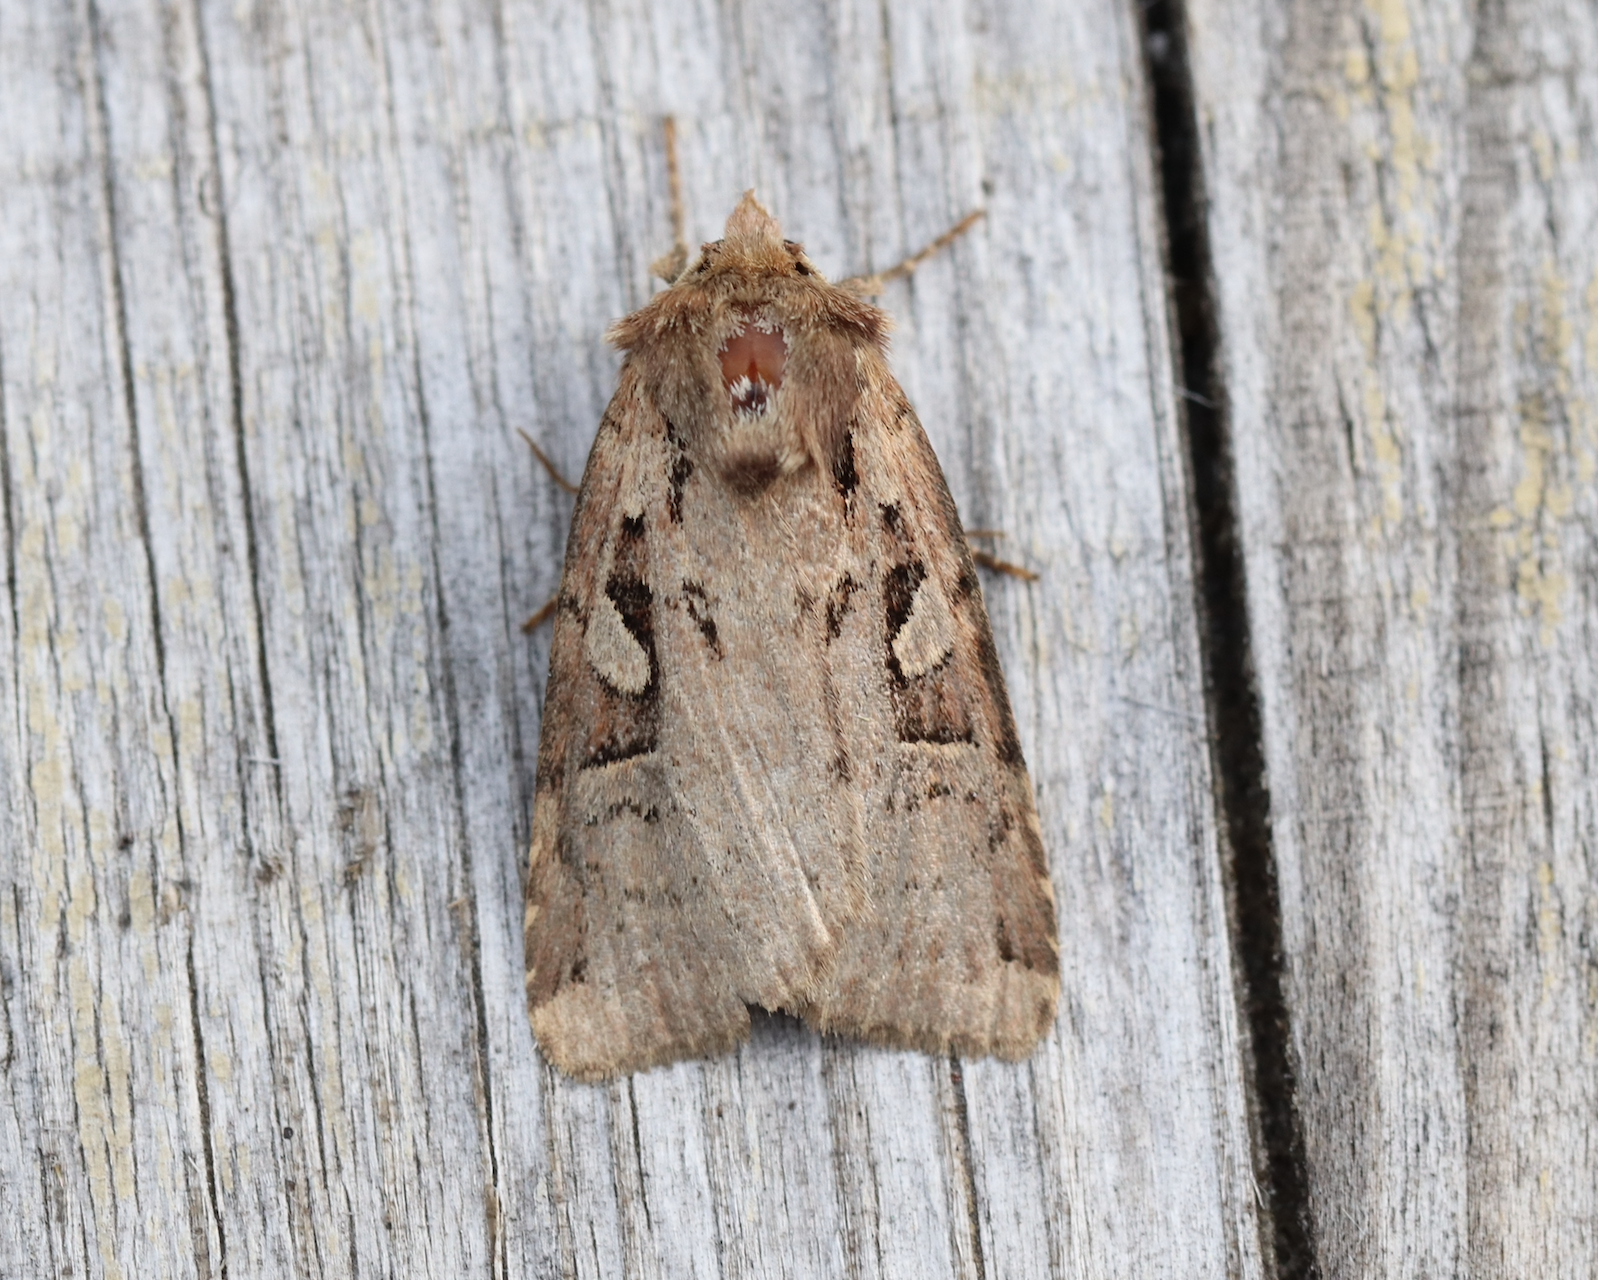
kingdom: Animalia
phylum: Arthropoda
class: Insecta
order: Lepidoptera
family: Noctuidae
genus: Xestia
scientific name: Xestia collina
